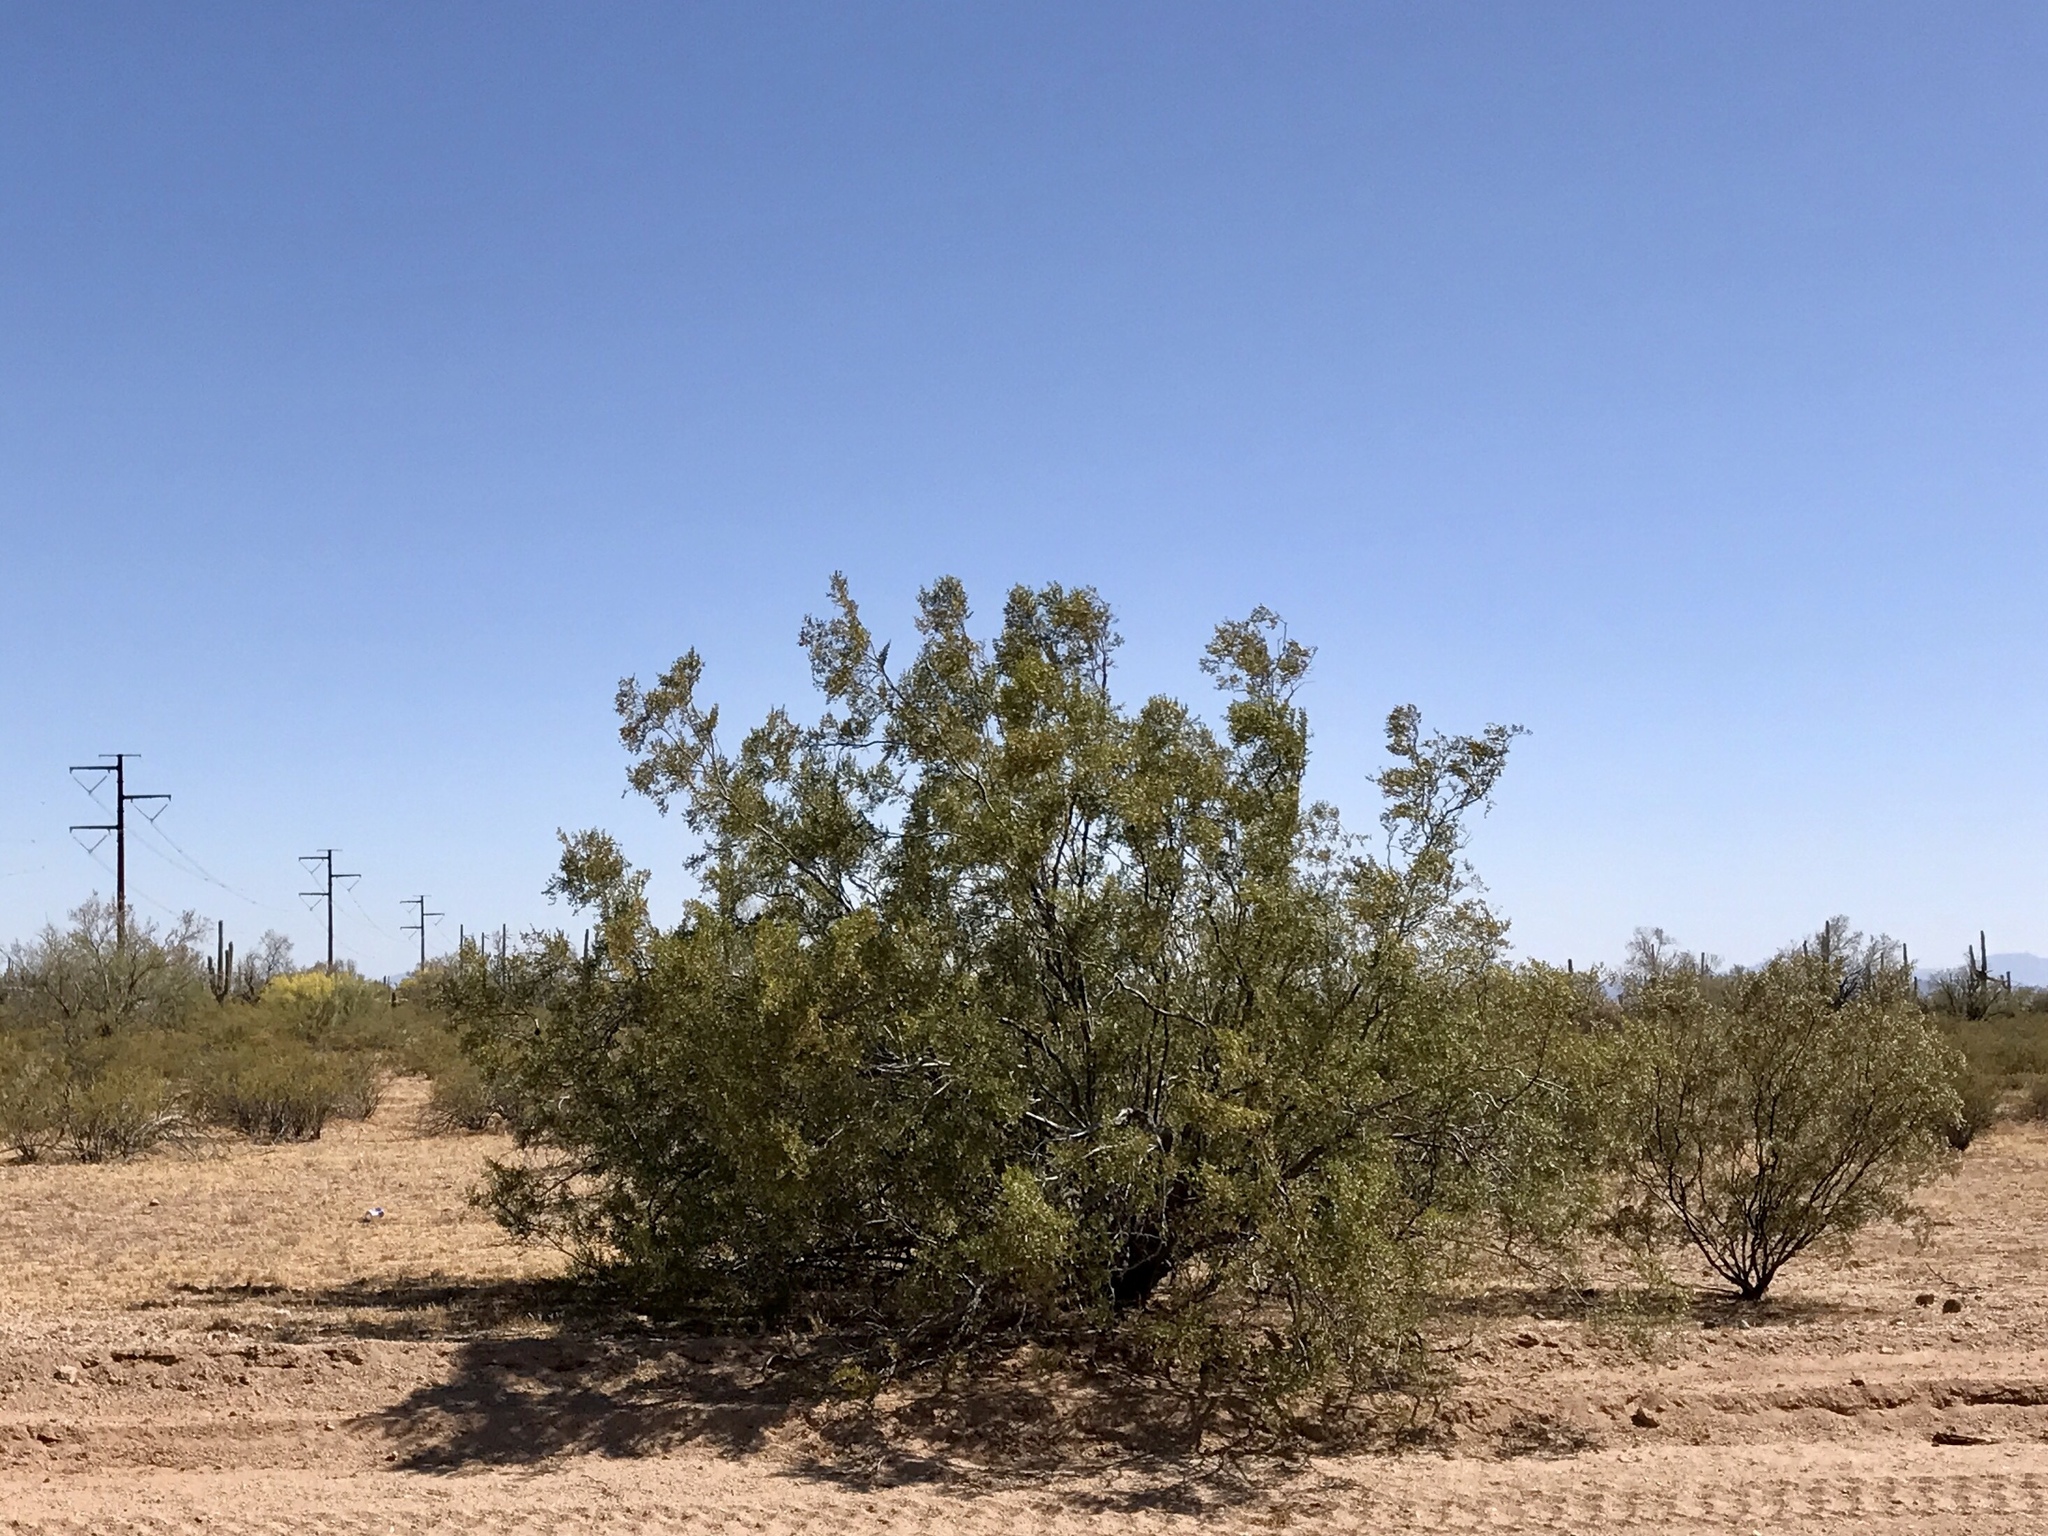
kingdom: Plantae
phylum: Tracheophyta
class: Magnoliopsida
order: Zygophyllales
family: Zygophyllaceae
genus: Larrea
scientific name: Larrea tridentata
